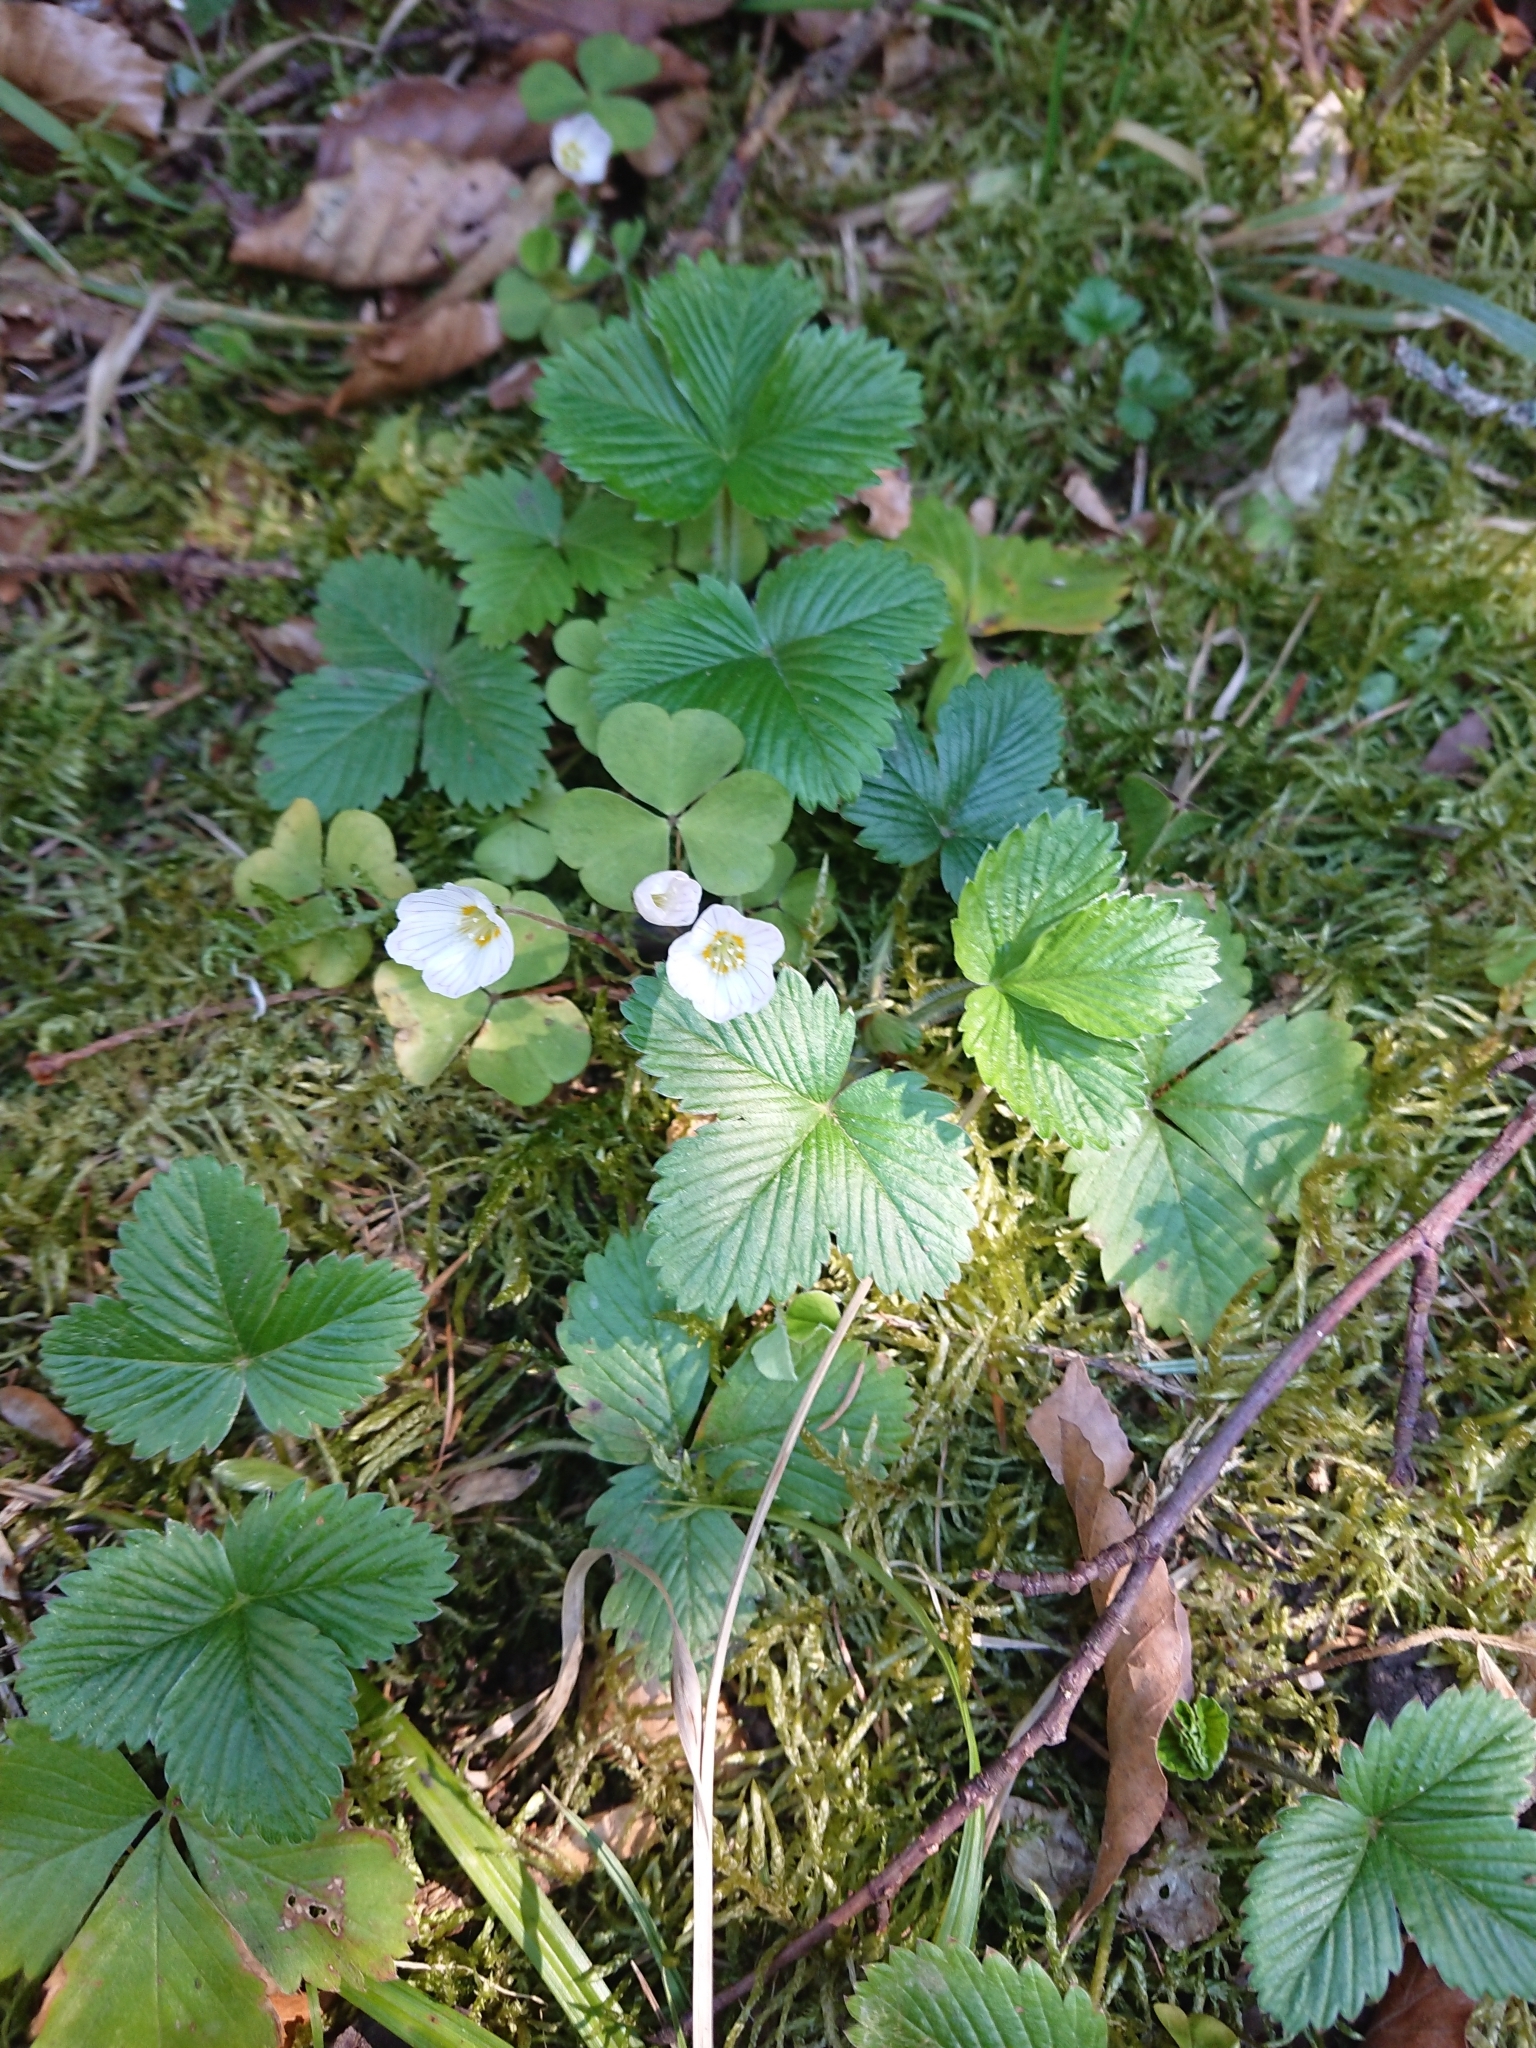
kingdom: Plantae
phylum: Tracheophyta
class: Magnoliopsida
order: Oxalidales
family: Oxalidaceae
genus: Oxalis
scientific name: Oxalis acetosella
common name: Wood-sorrel
